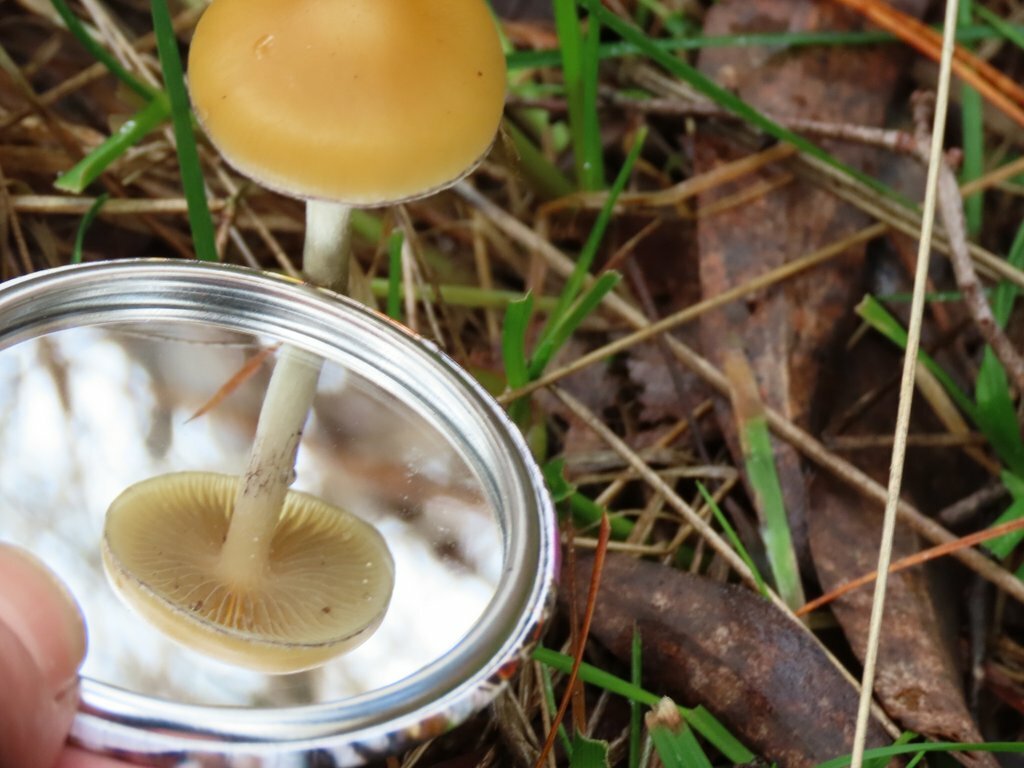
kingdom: Fungi
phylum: Basidiomycota
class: Agaricomycetes
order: Agaricales
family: Hymenogastraceae
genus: Psilocybe
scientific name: Psilocybe subaeruginosa
